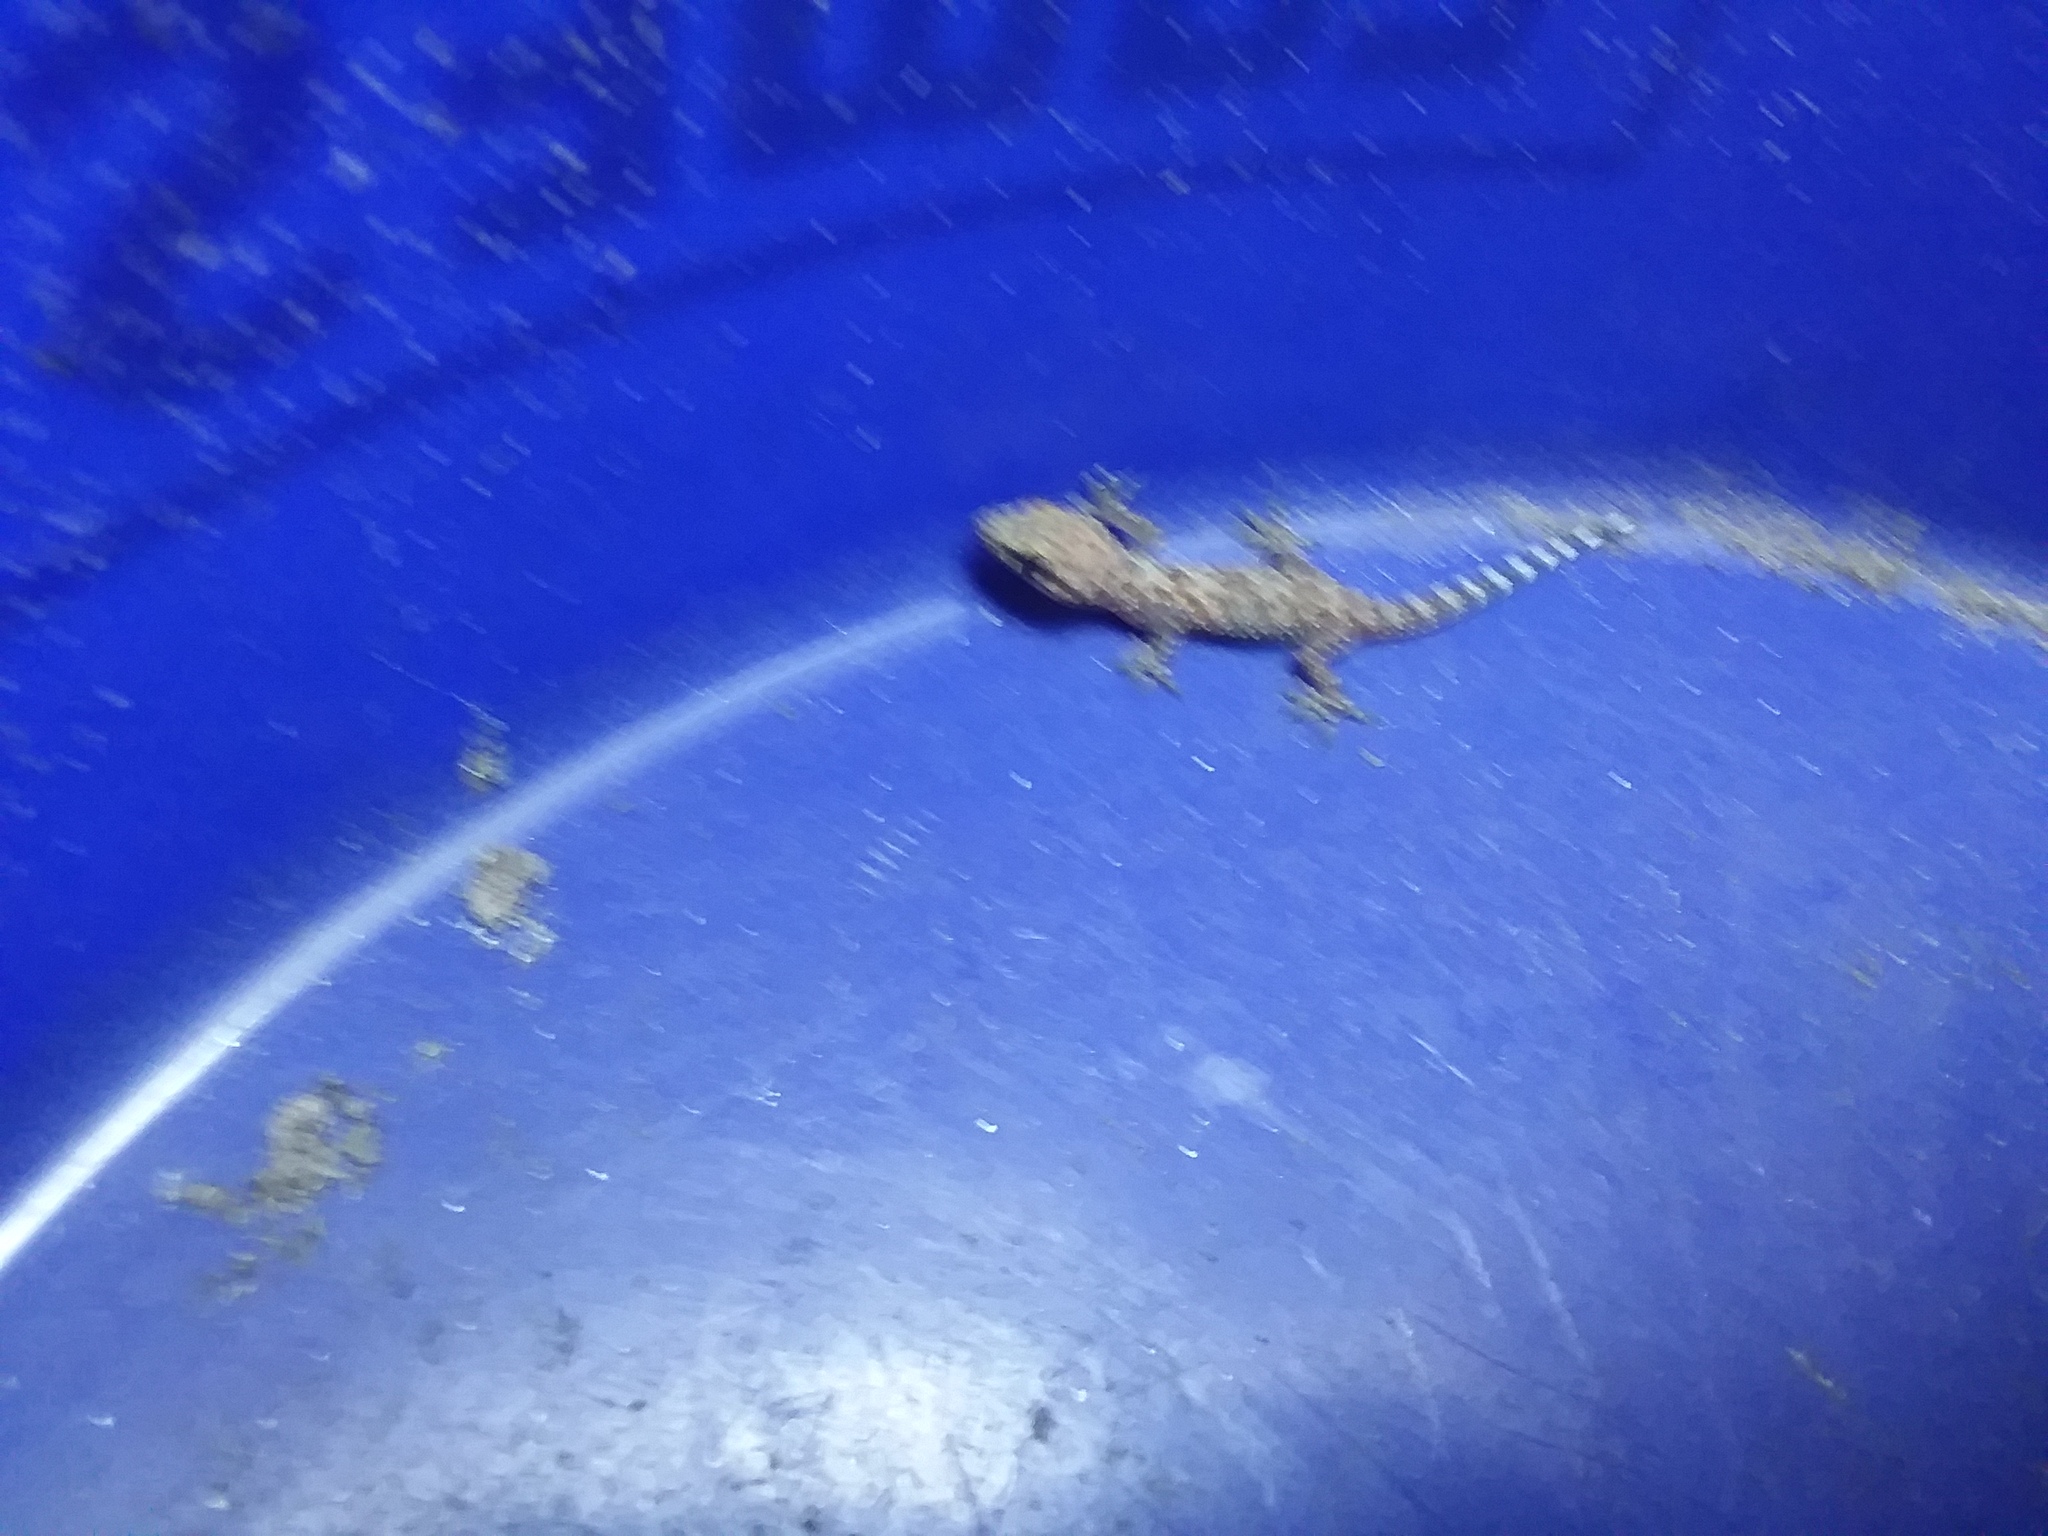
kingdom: Animalia
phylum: Chordata
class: Squamata
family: Gekkonidae
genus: Hemidactylus
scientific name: Hemidactylus turcicus
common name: Turkish gecko
